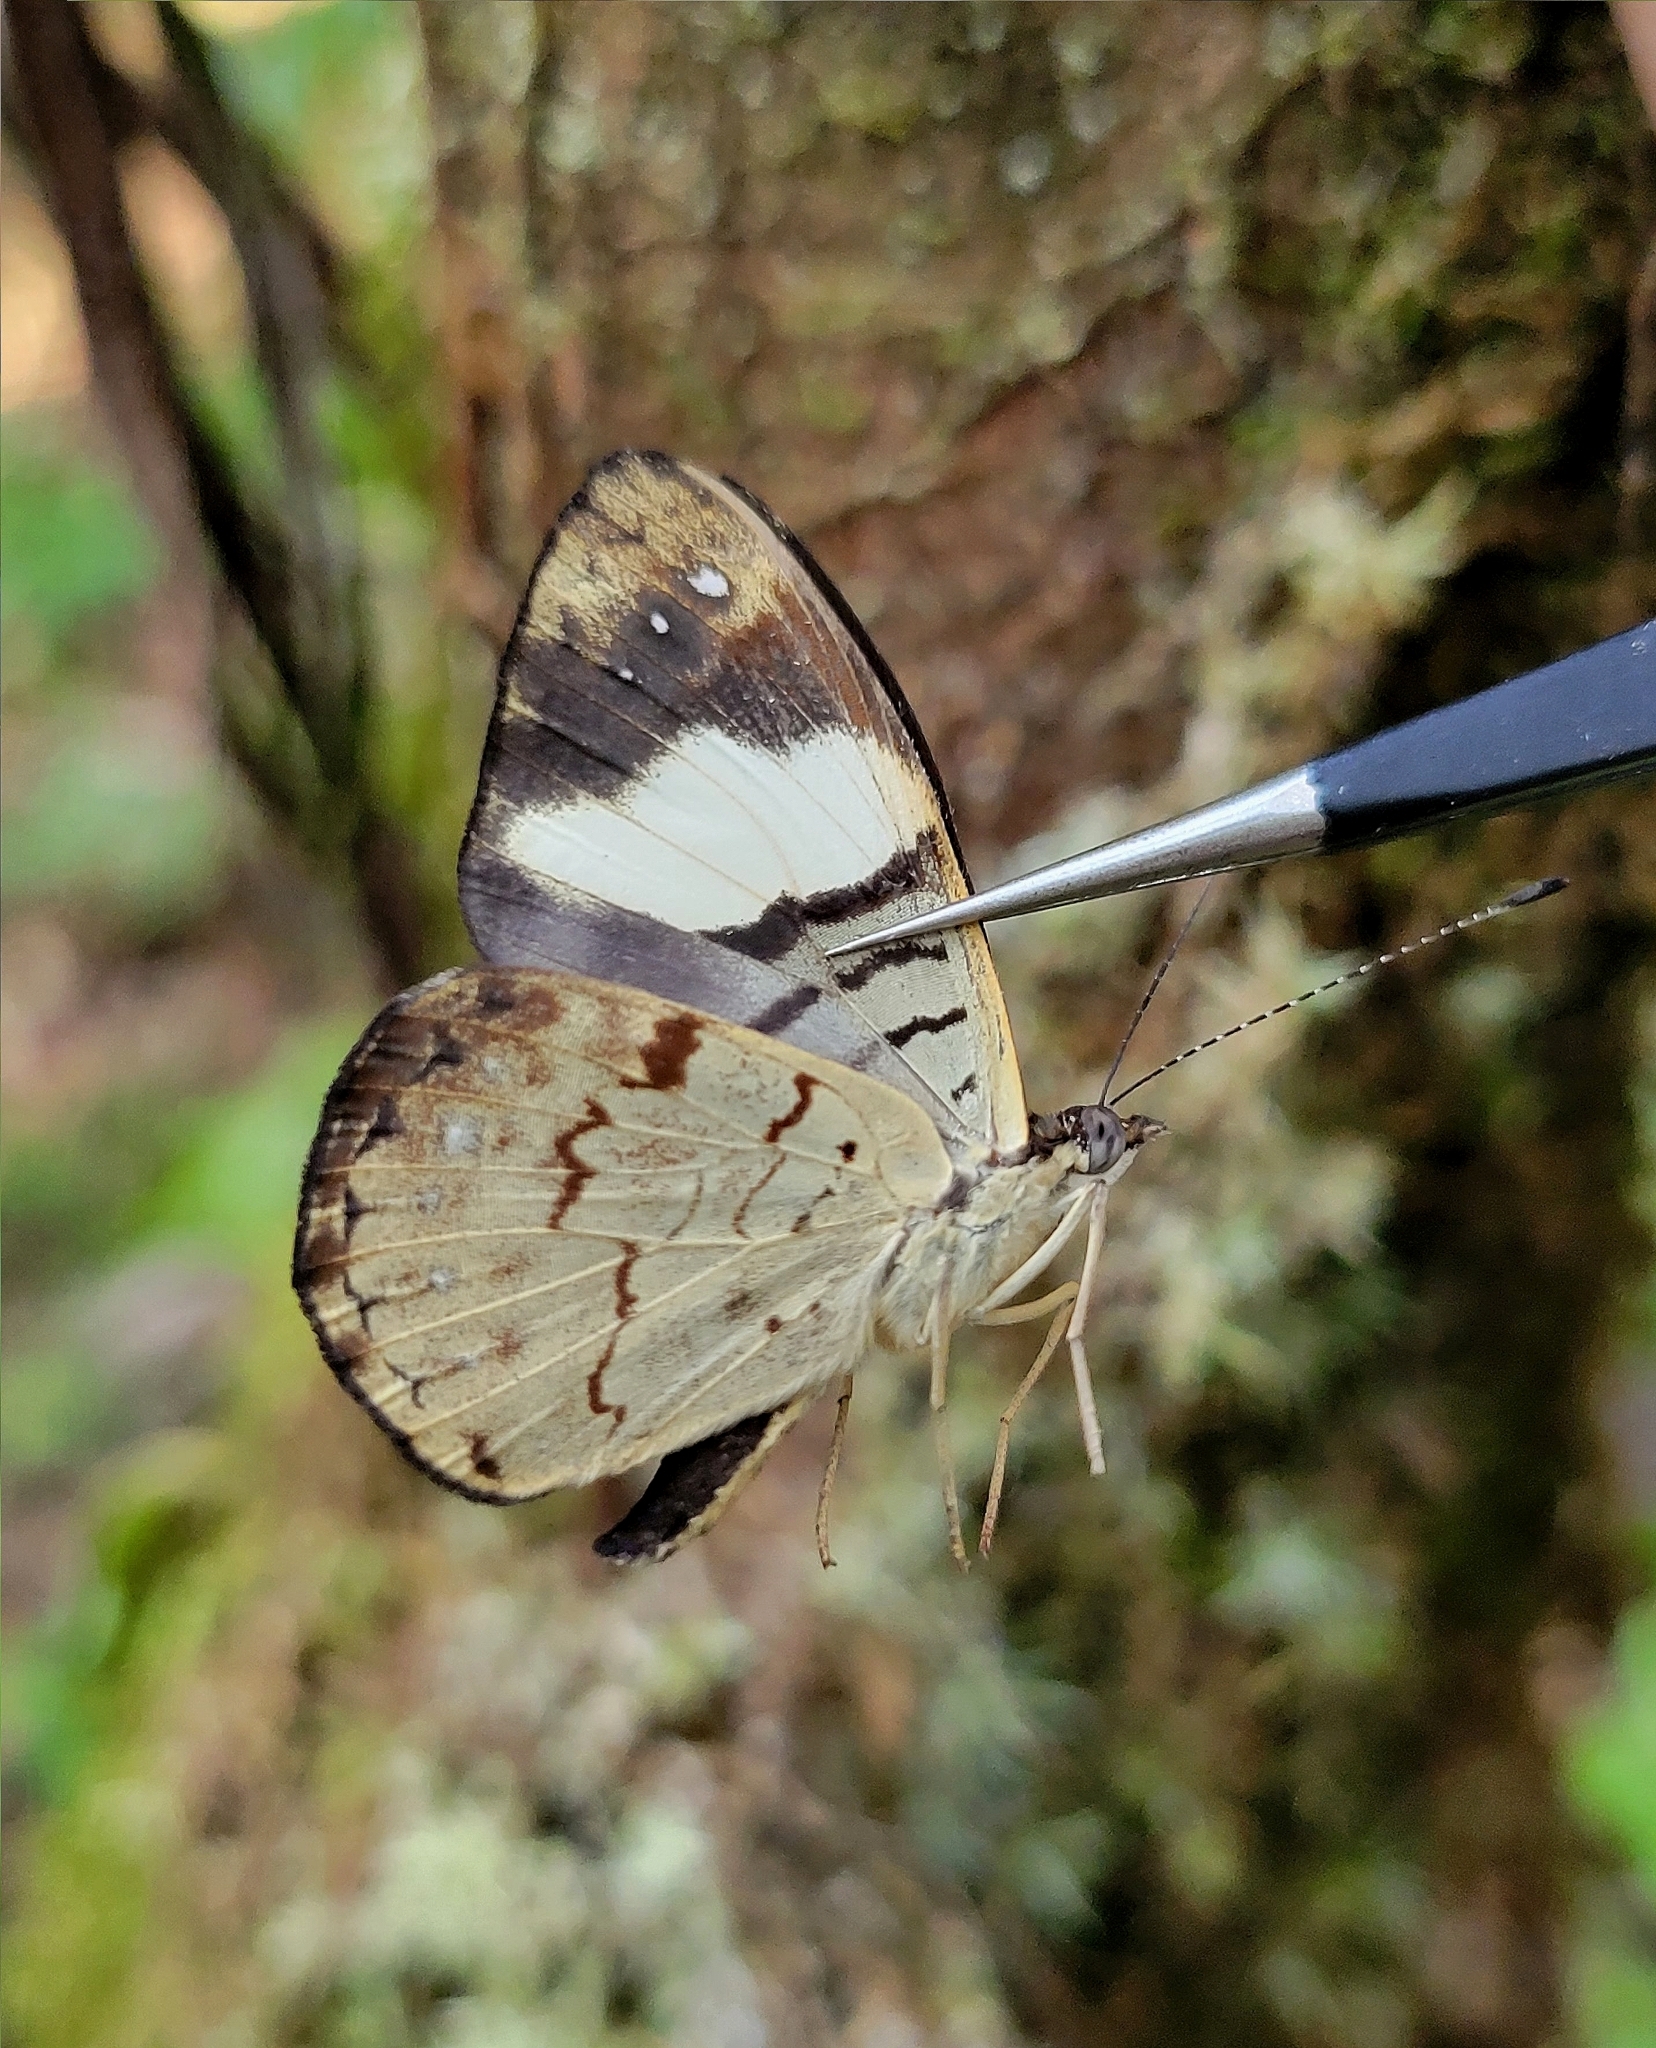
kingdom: Animalia
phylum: Arthropoda
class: Insecta
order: Lepidoptera
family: Nymphalidae
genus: Ectima
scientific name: Ectima liria
